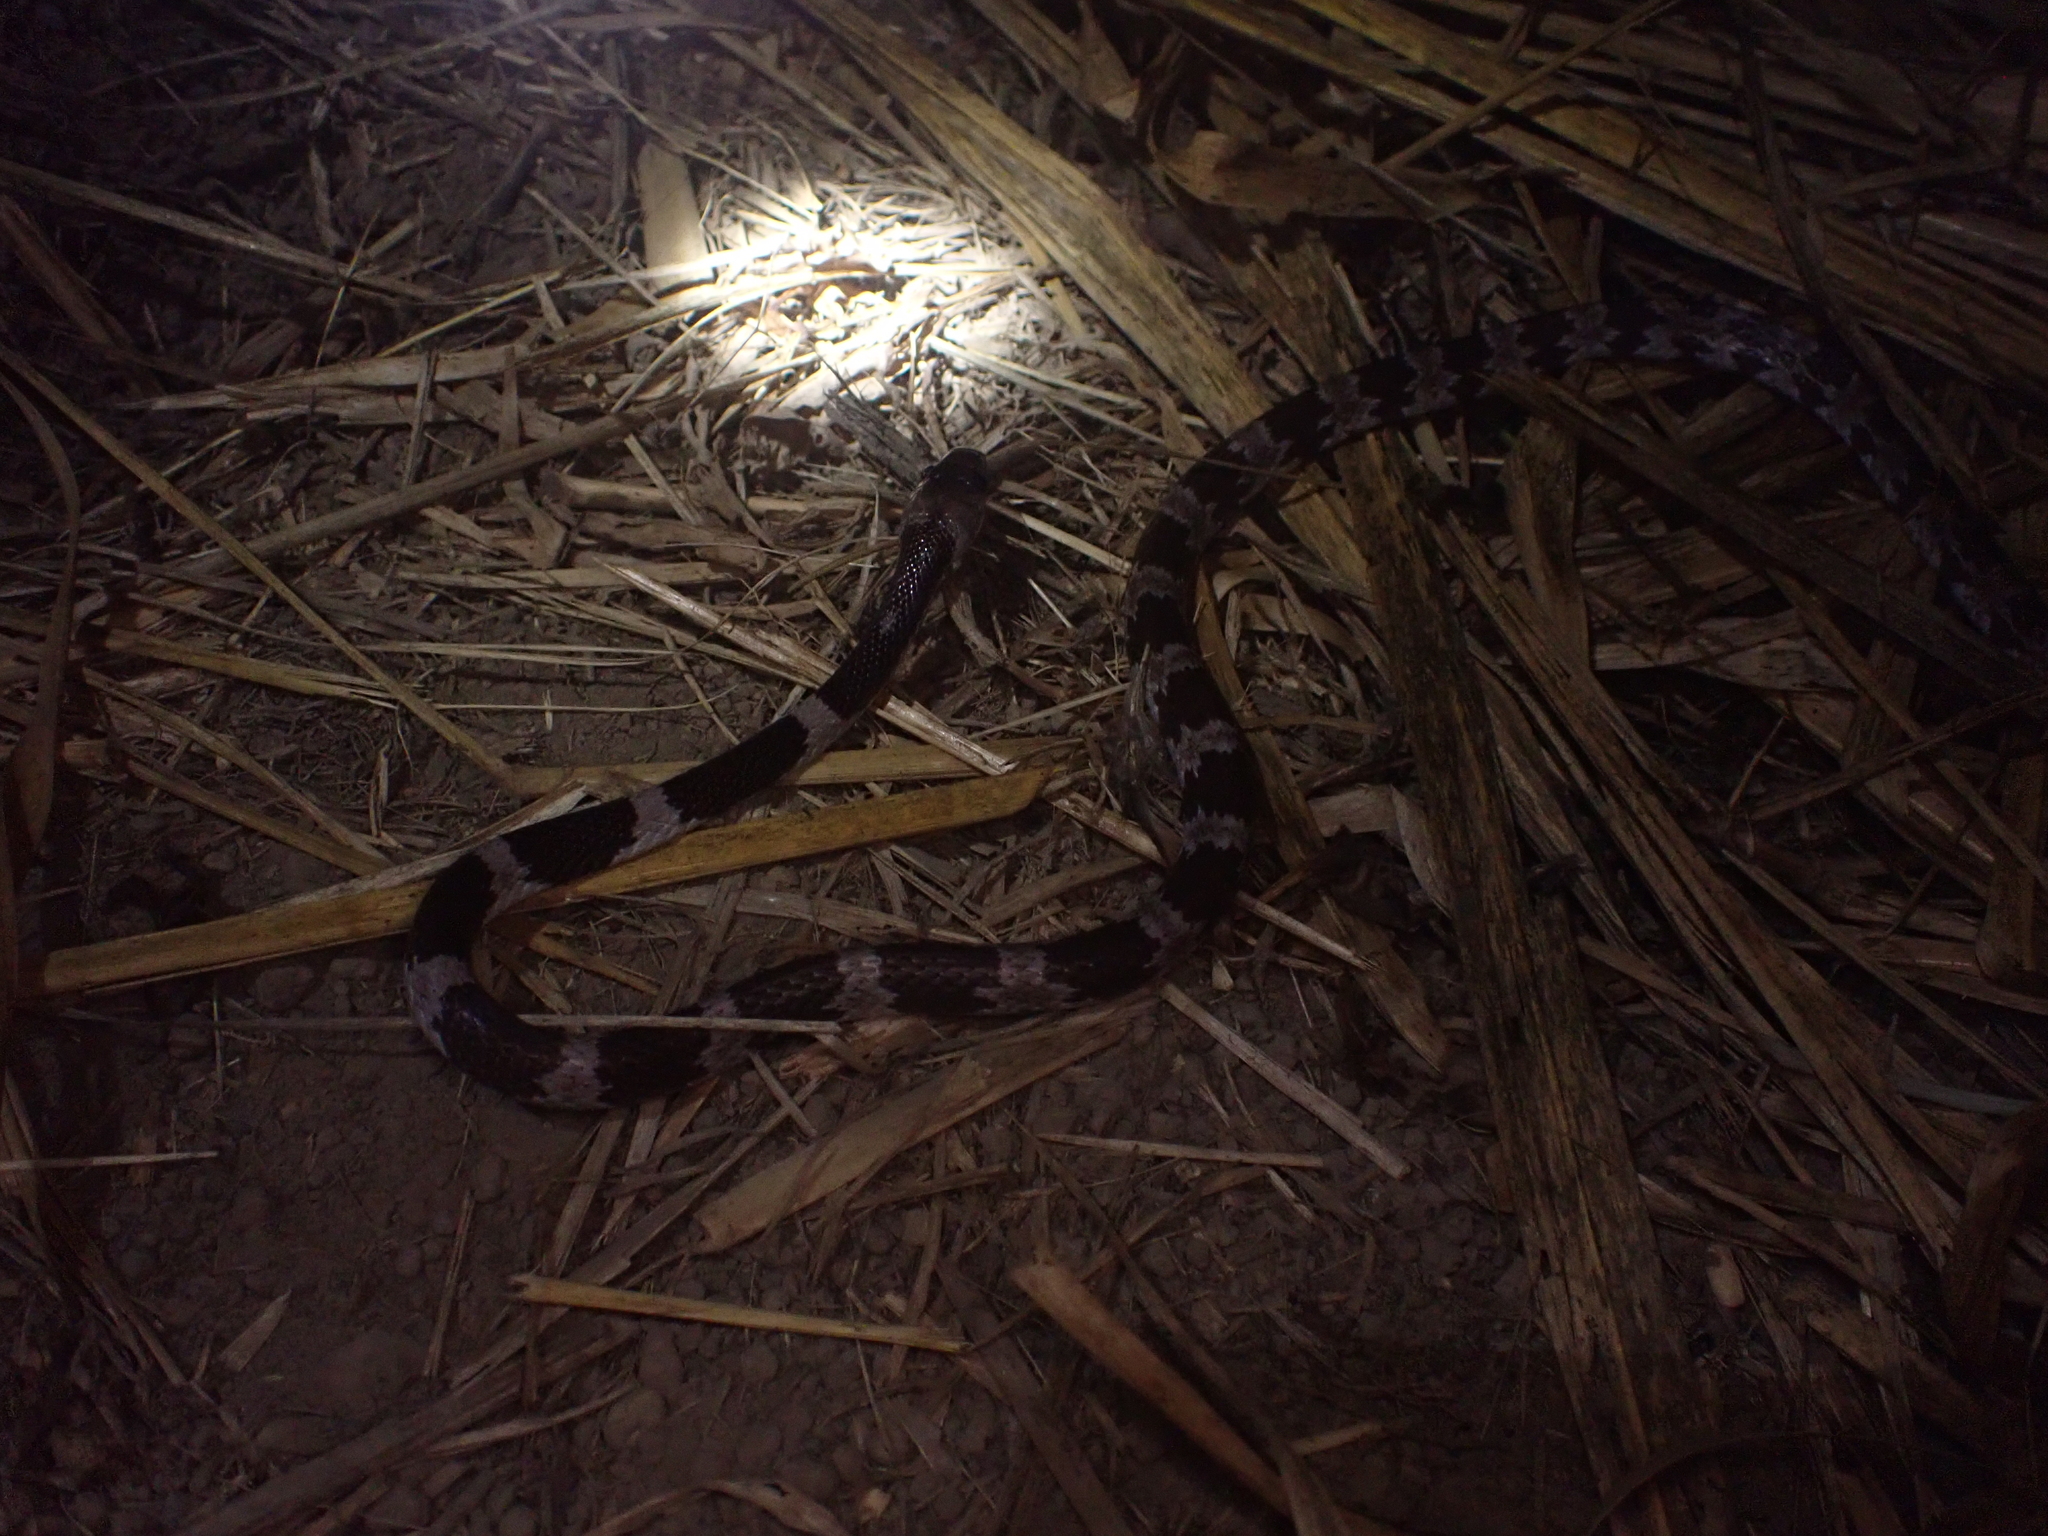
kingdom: Animalia
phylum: Chordata
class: Squamata
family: Colubridae
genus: Lycodon
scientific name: Lycodon ruhstrati
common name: Rushstrat's wolf snake
